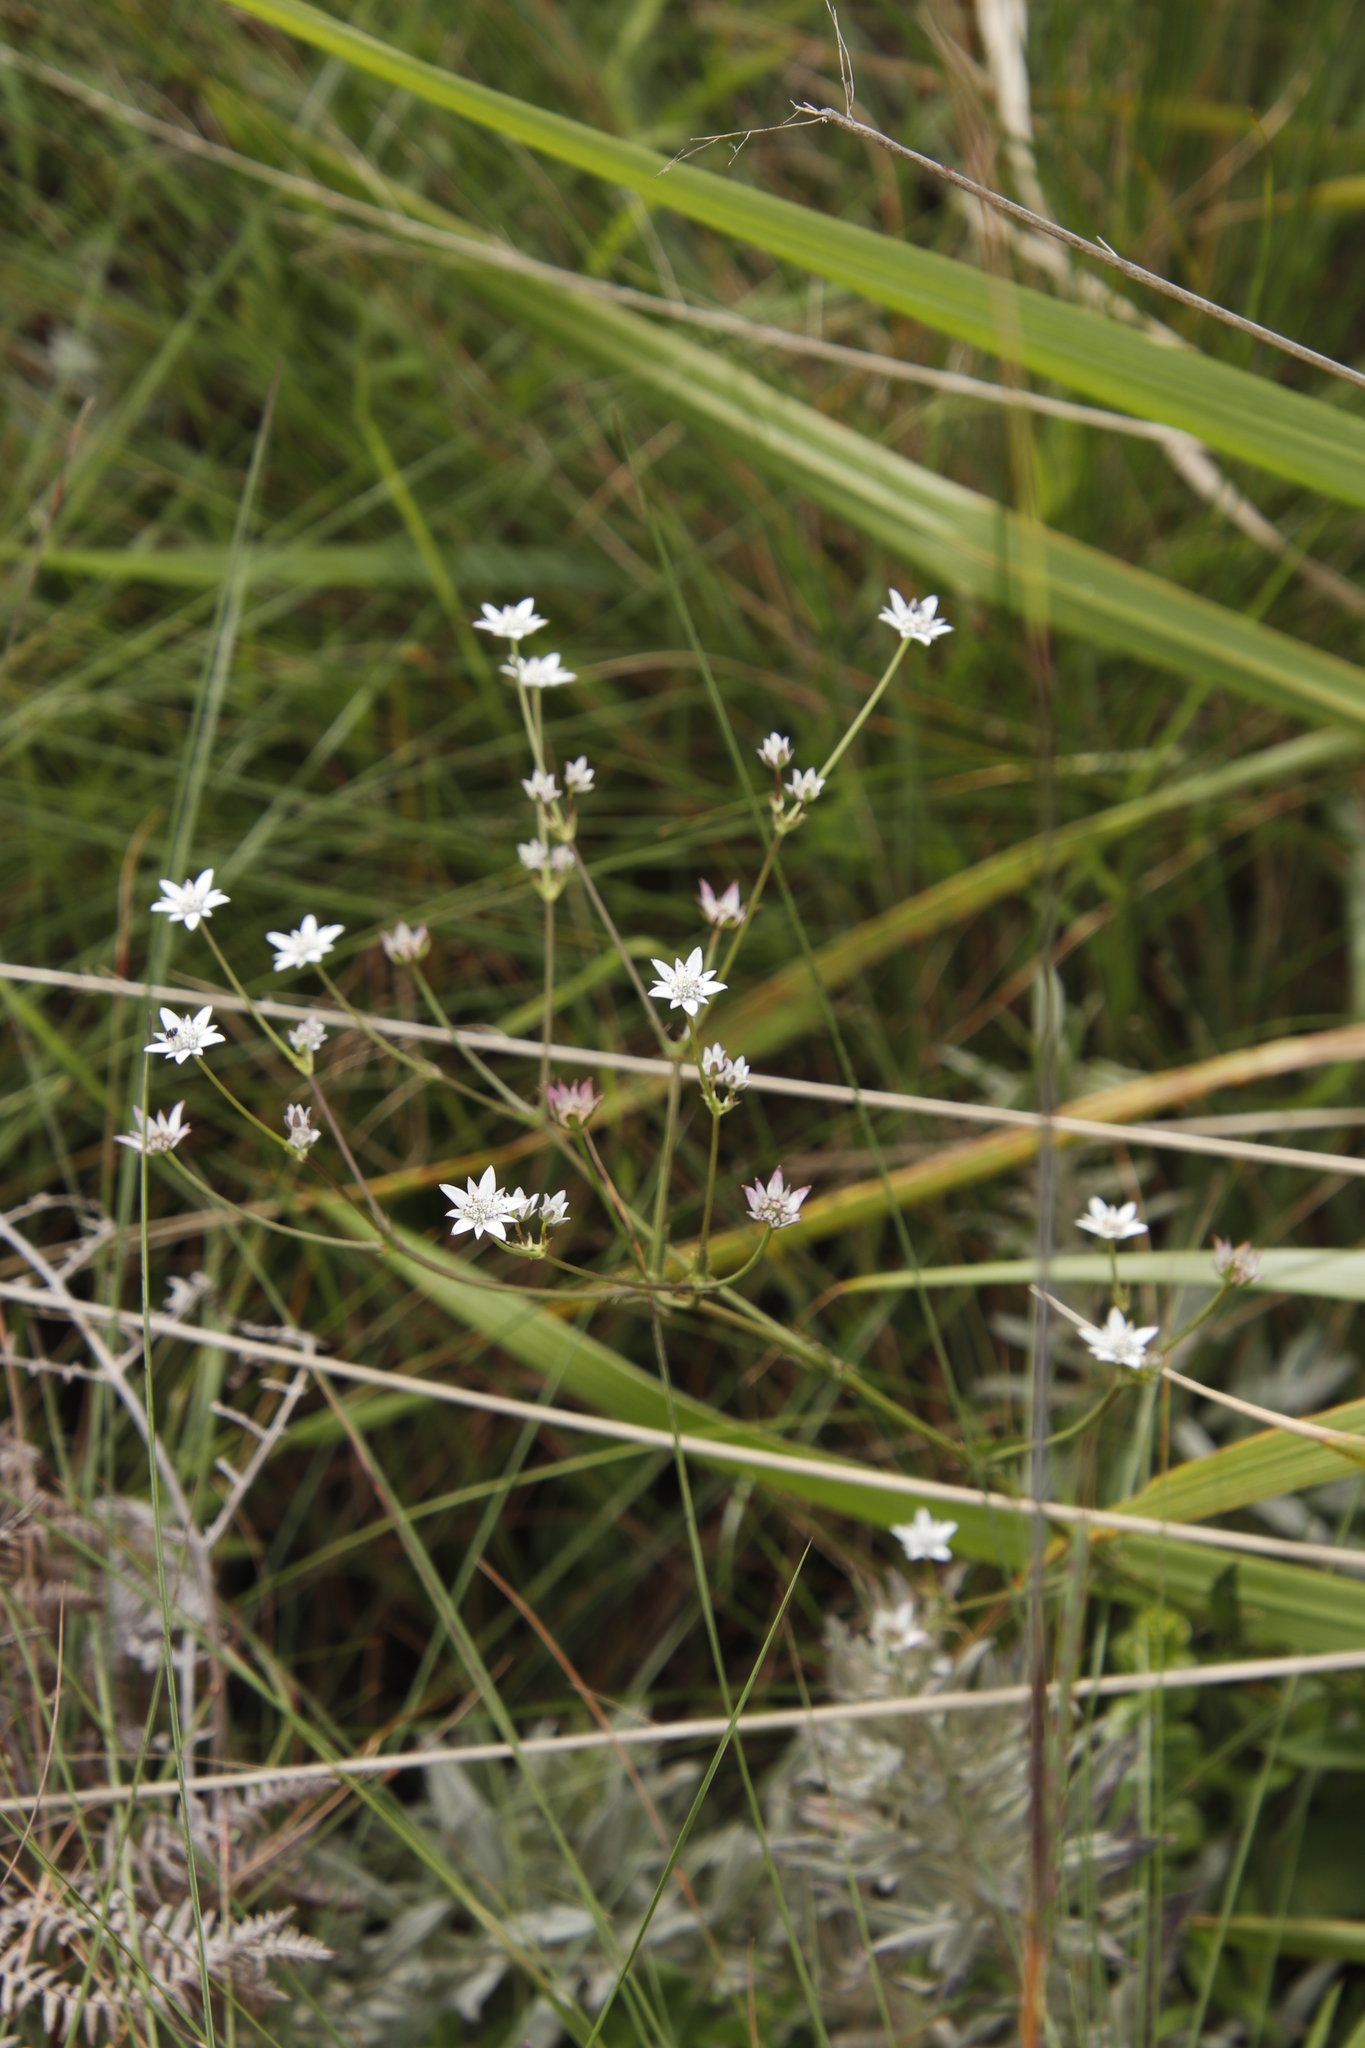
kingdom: Plantae
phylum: Tracheophyta
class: Magnoliopsida
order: Apiales
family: Apiaceae
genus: Alepidea
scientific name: Alepidea peduncularis
